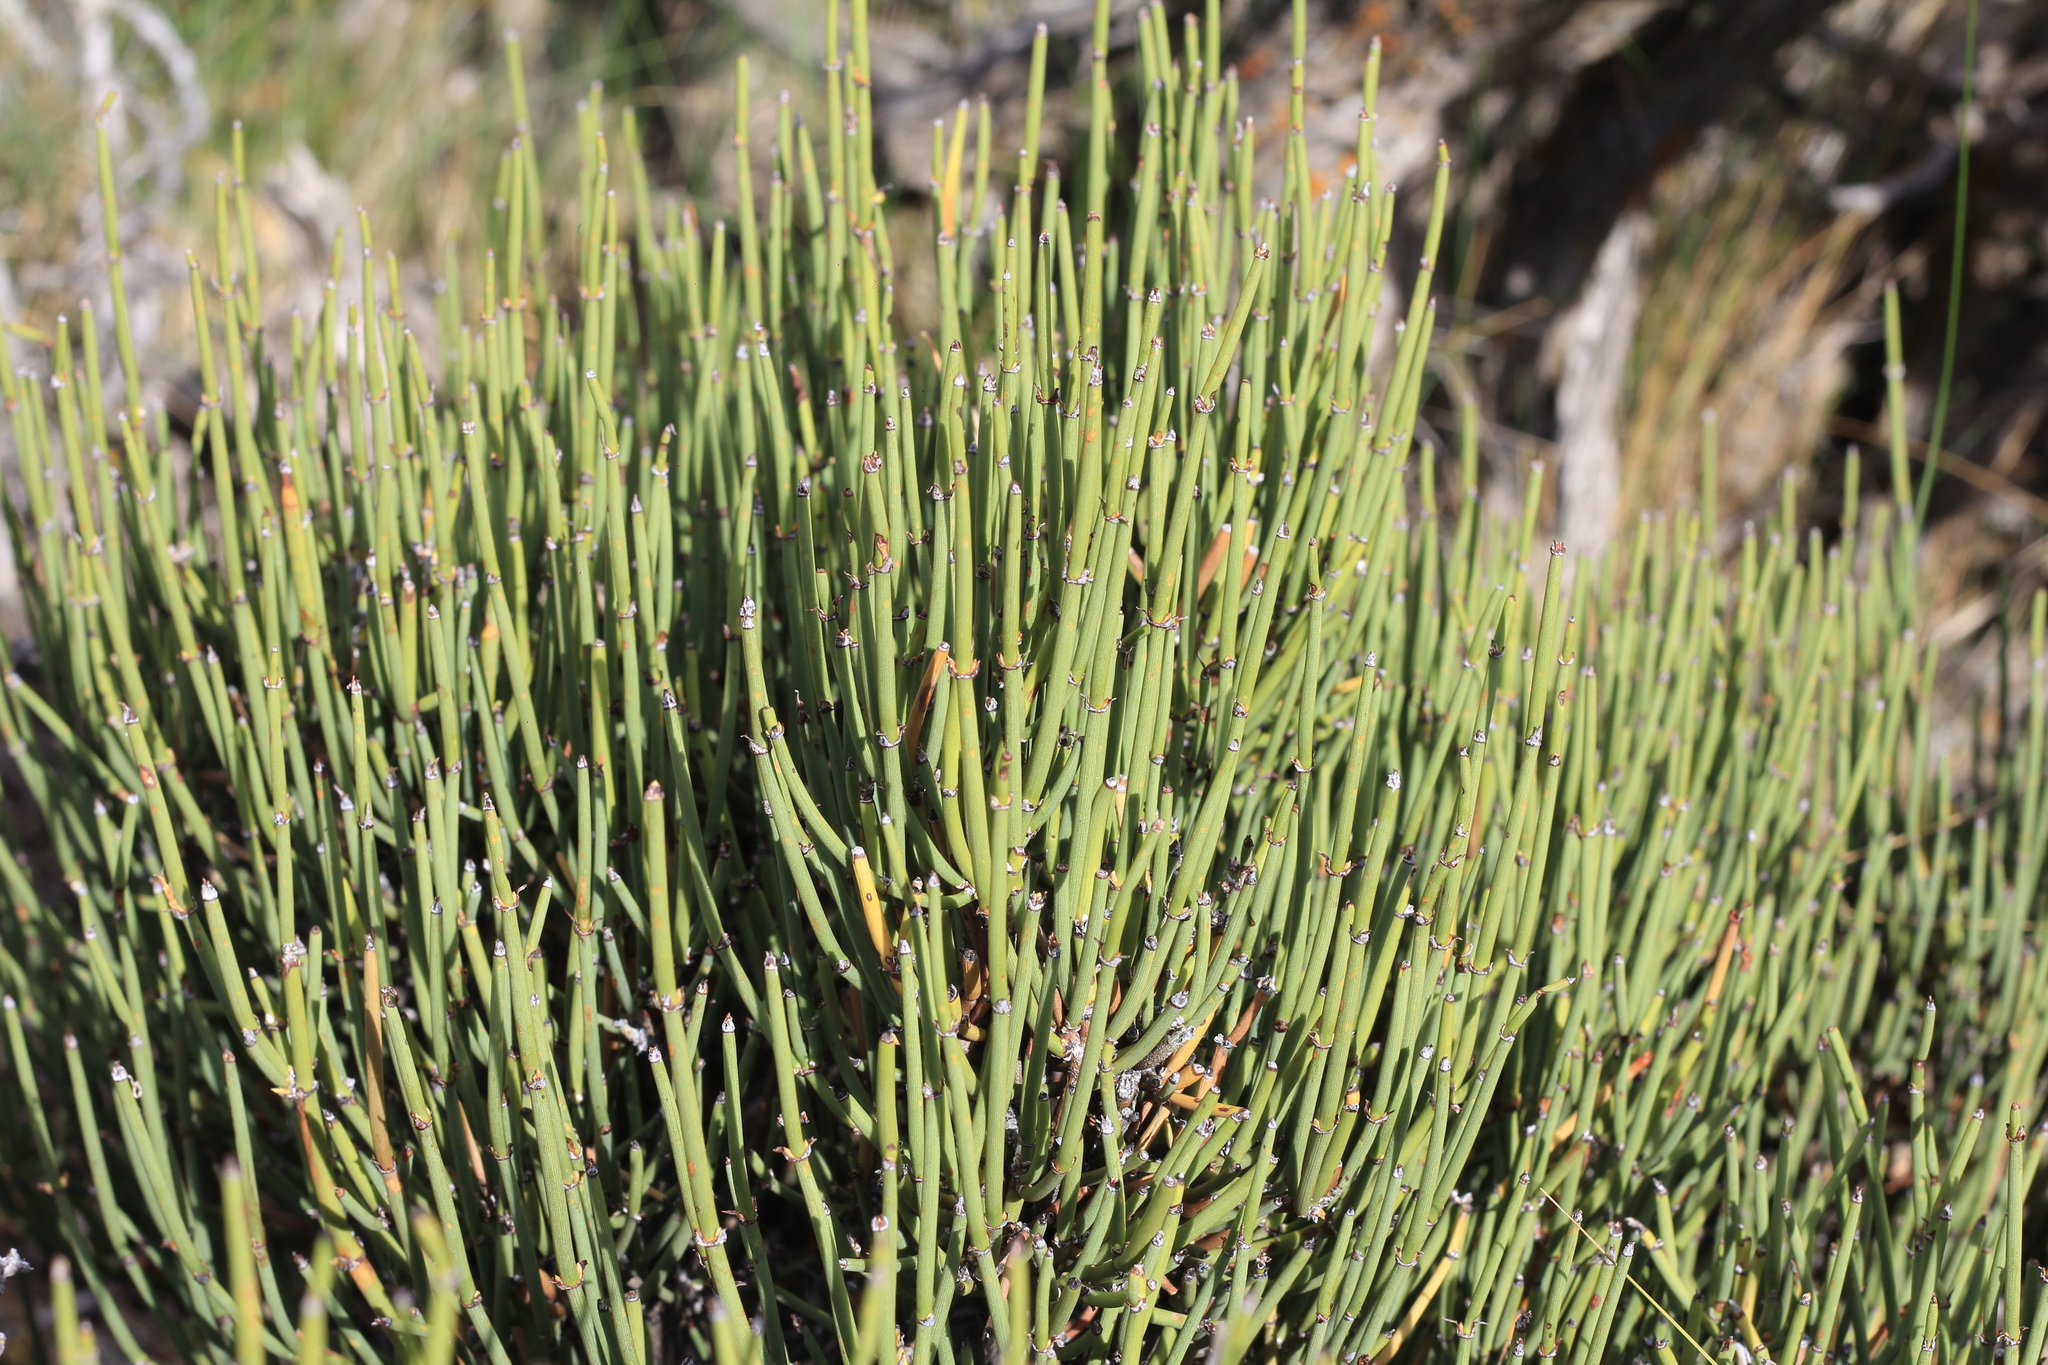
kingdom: Plantae
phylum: Tracheophyta
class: Gnetopsida
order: Ephedrales
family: Ephedraceae
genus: Ephedra
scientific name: Ephedra chilensis
